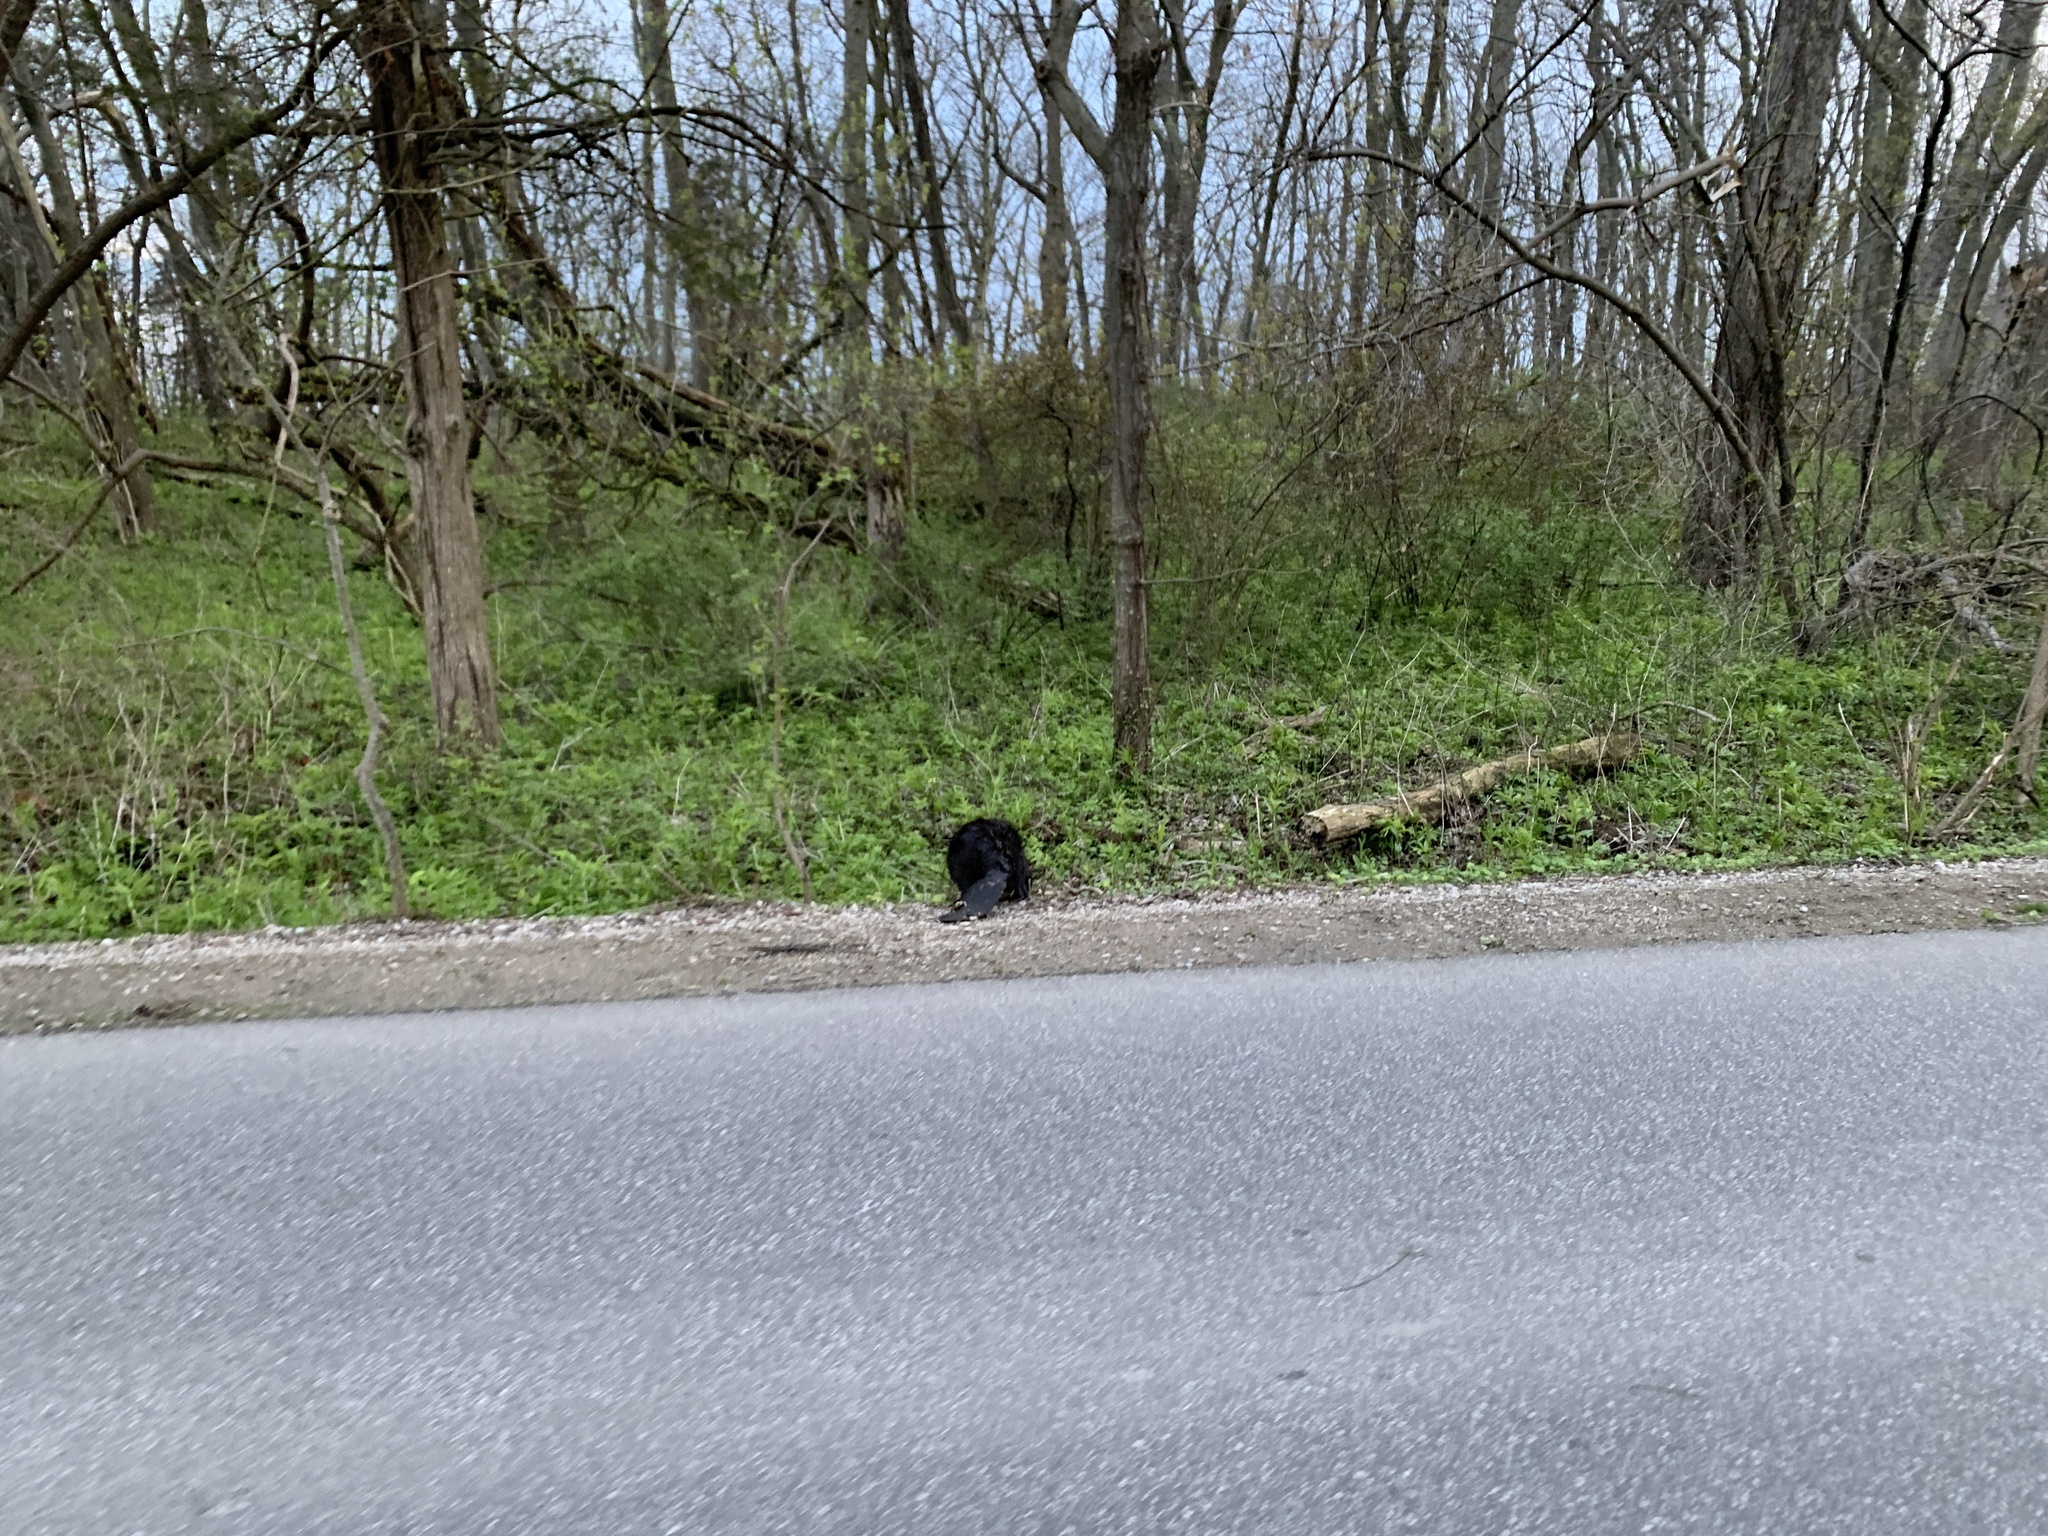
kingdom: Animalia
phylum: Chordata
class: Mammalia
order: Rodentia
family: Castoridae
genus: Castor
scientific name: Castor canadensis
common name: American beaver
